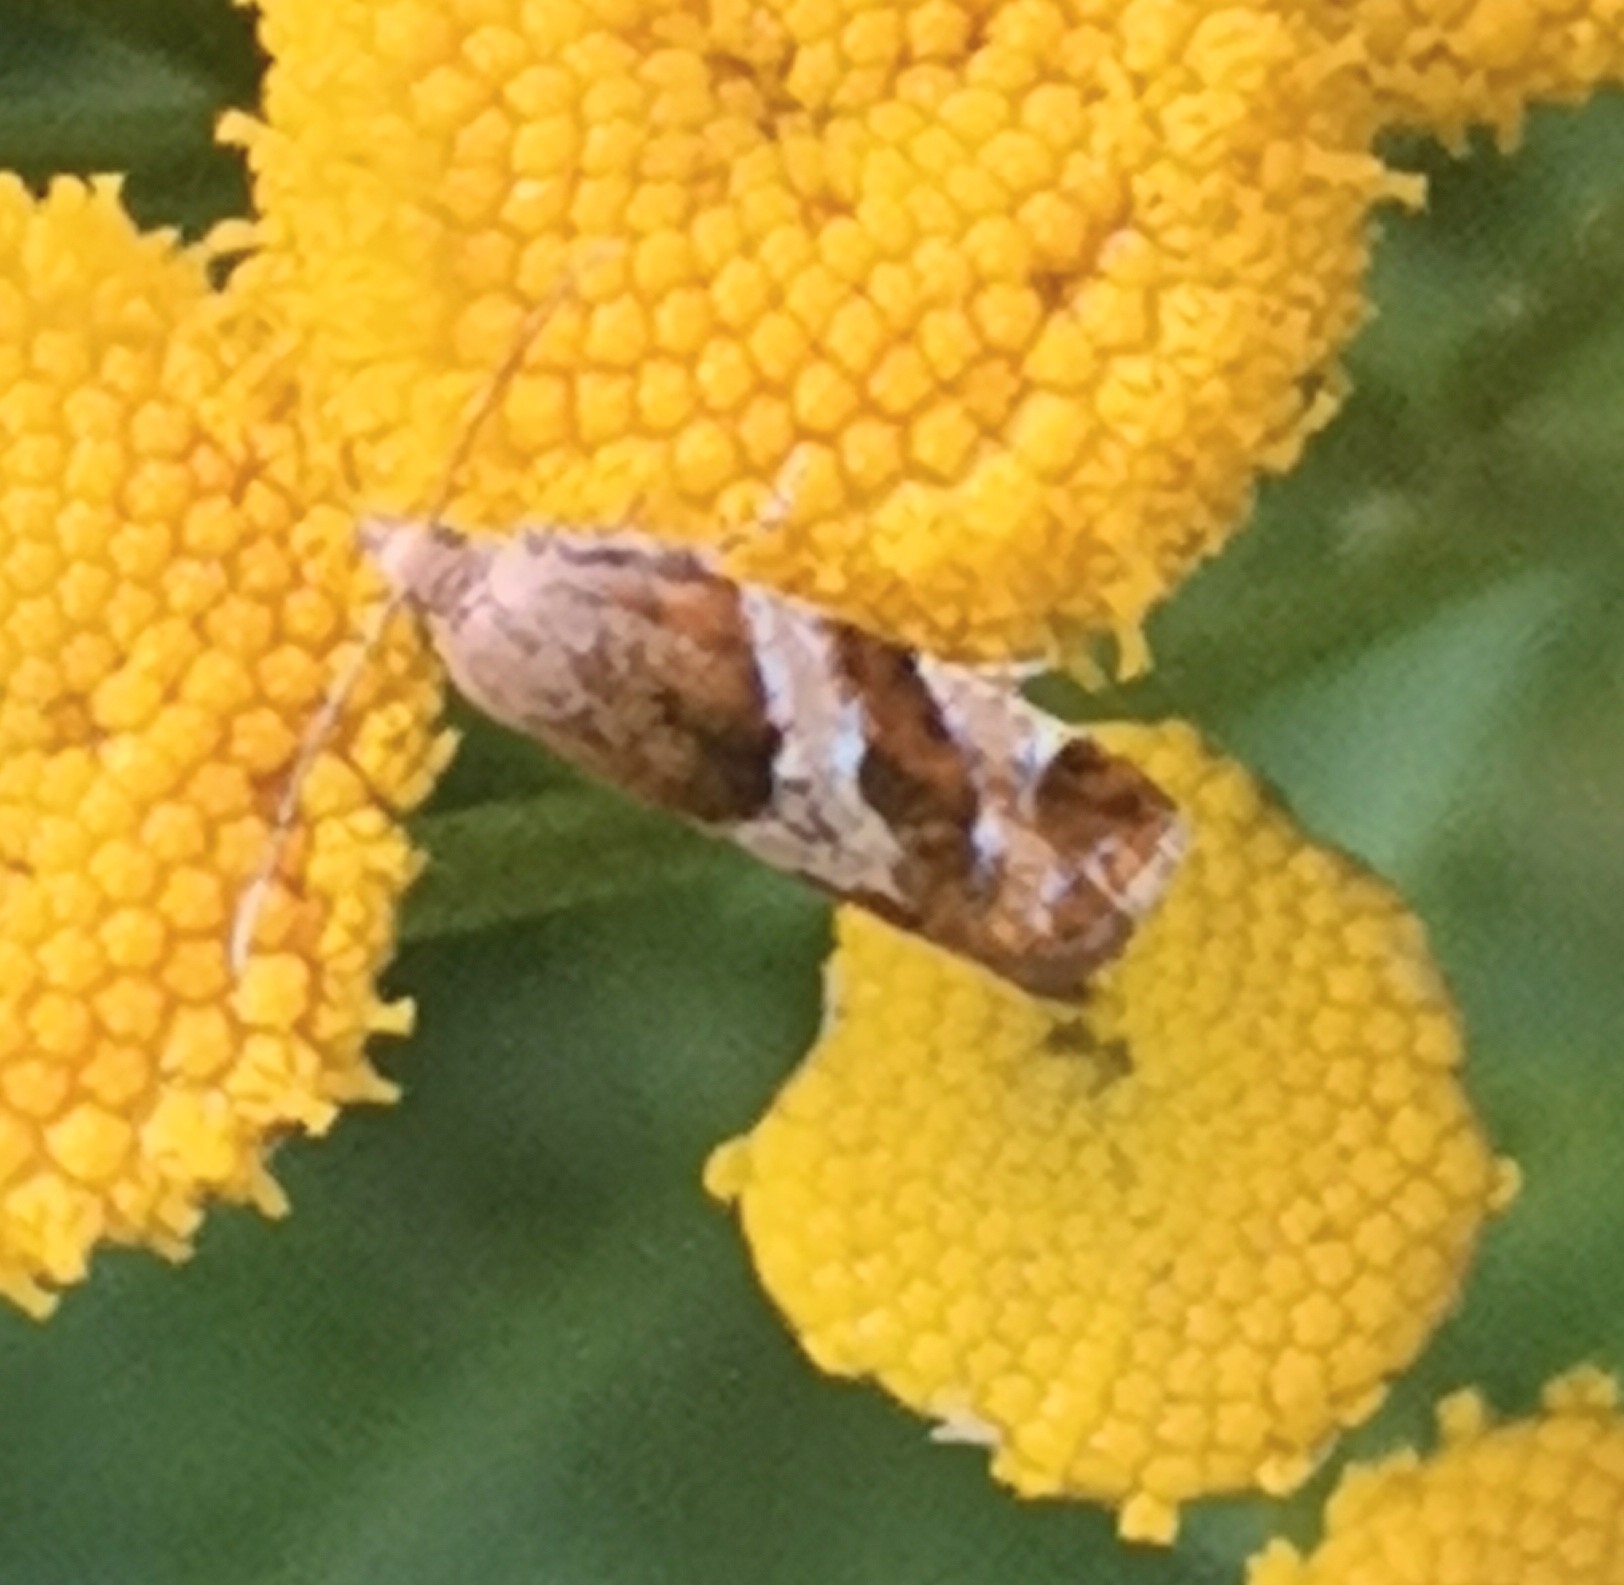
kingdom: Animalia
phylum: Arthropoda
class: Insecta
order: Lepidoptera
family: Tortricidae
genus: Epinotia
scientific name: Epinotia cruciana
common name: Willow tortrix
